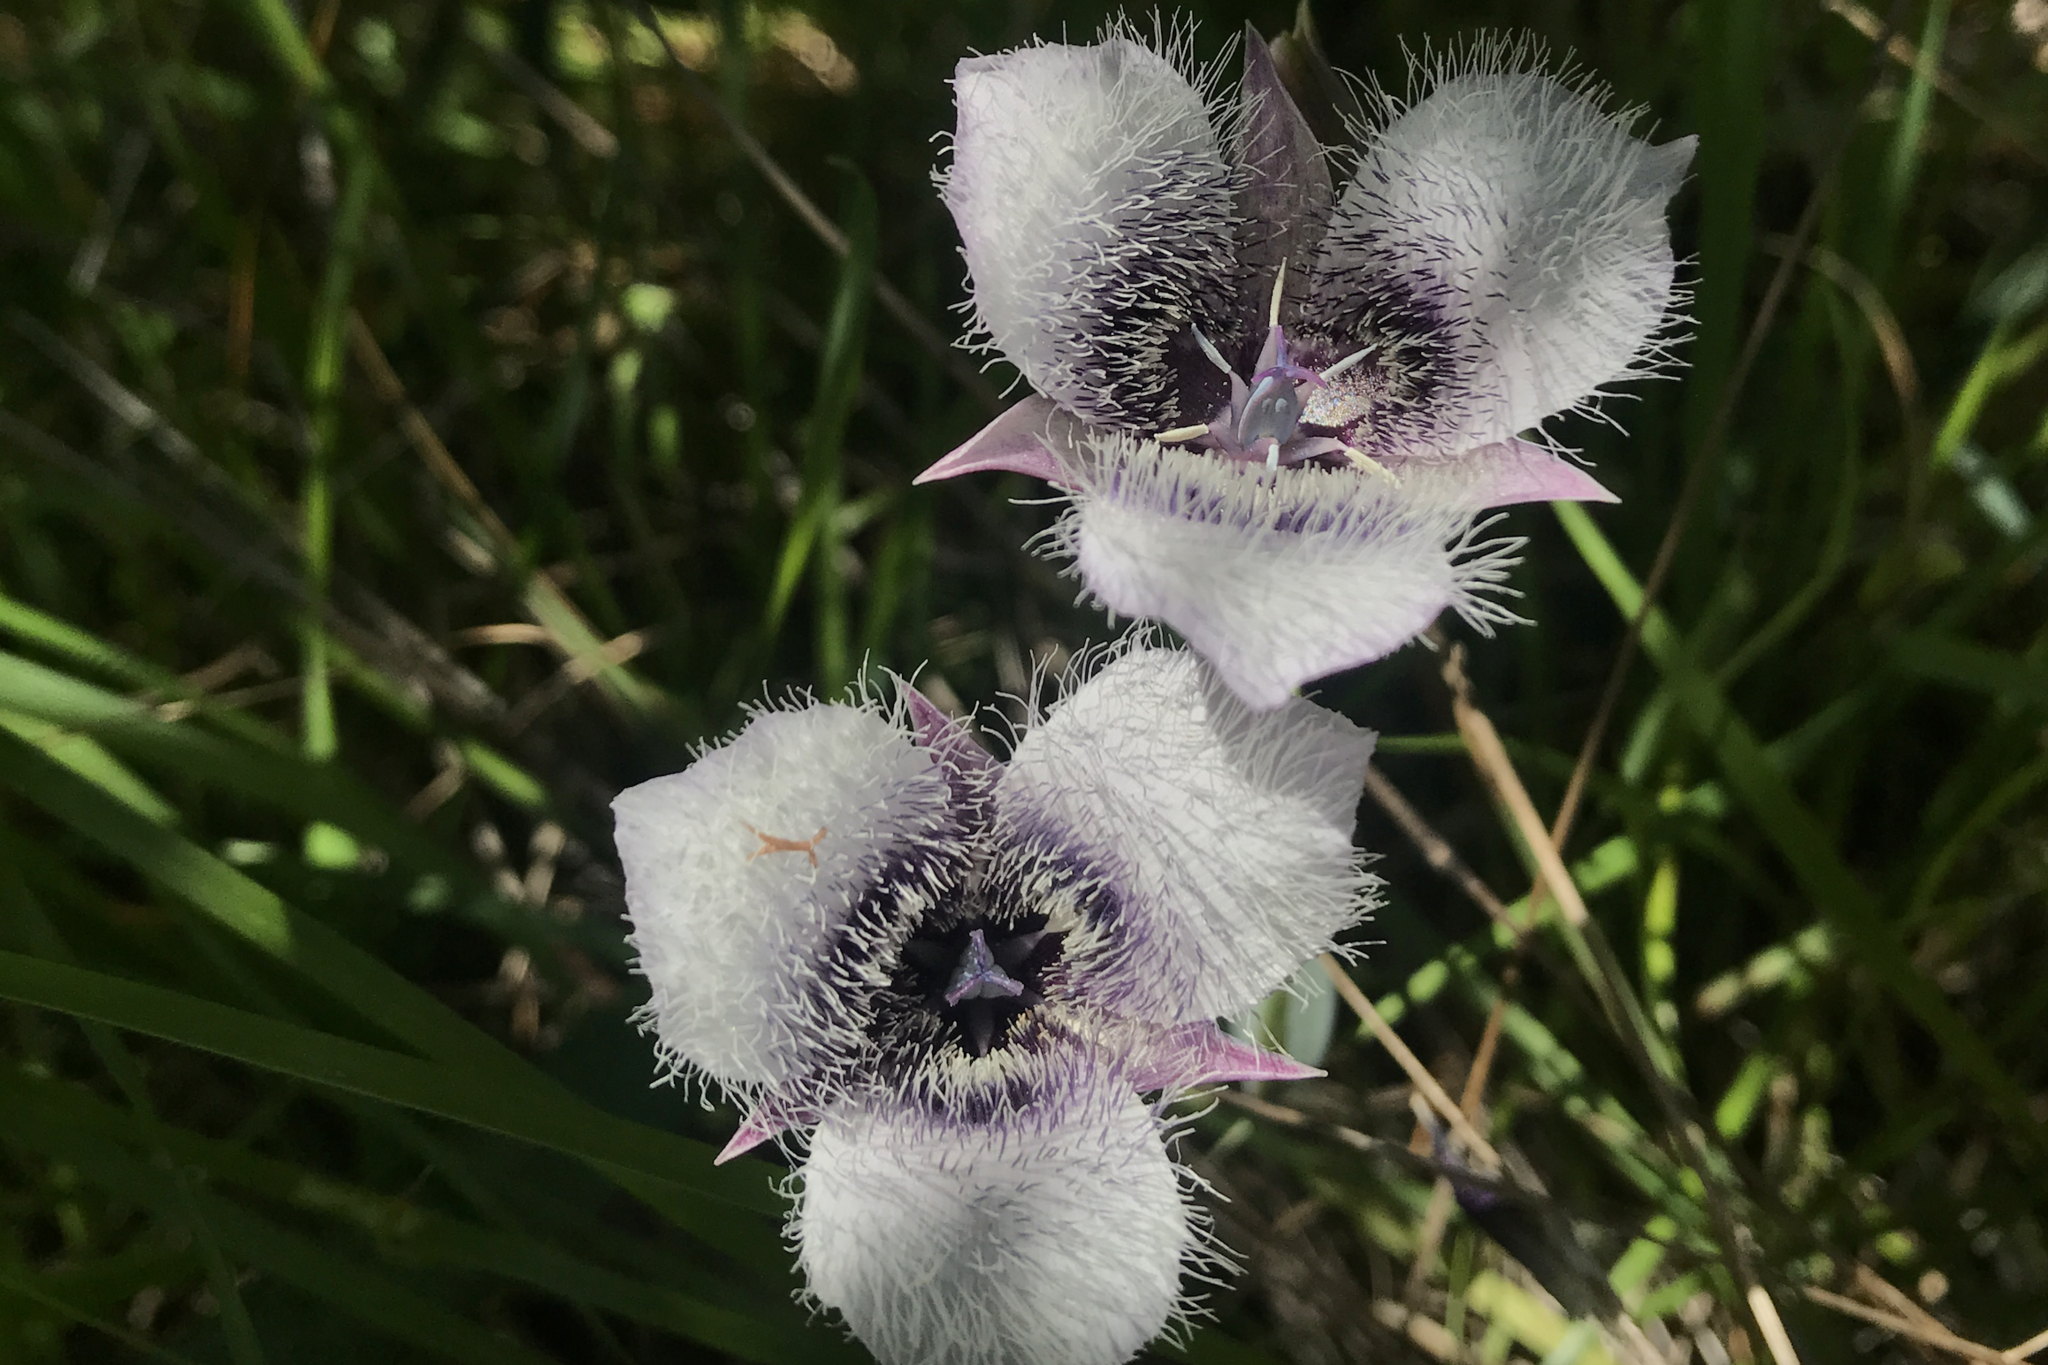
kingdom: Plantae
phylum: Tracheophyta
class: Liliopsida
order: Liliales
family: Liliaceae
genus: Calochortus
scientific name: Calochortus tolmiei
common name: Pussy-ears
